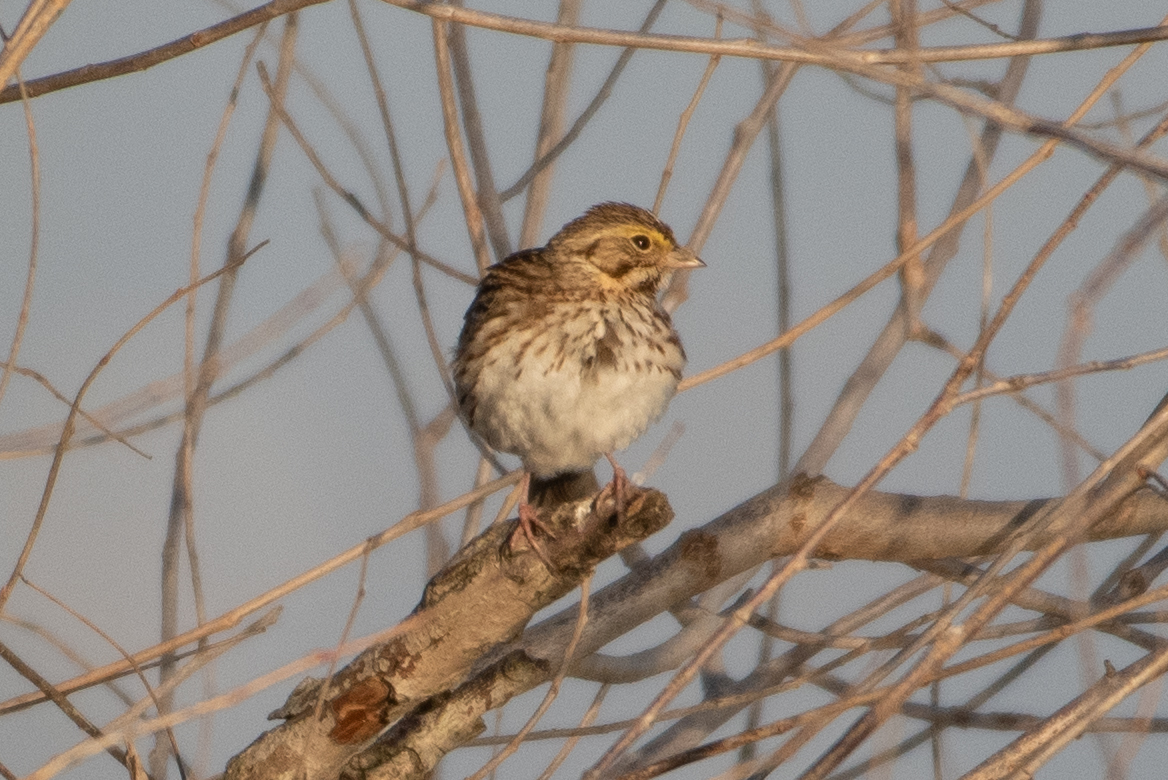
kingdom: Animalia
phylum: Chordata
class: Aves
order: Passeriformes
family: Passerellidae
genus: Passerculus
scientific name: Passerculus sandwichensis
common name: Savannah sparrow
